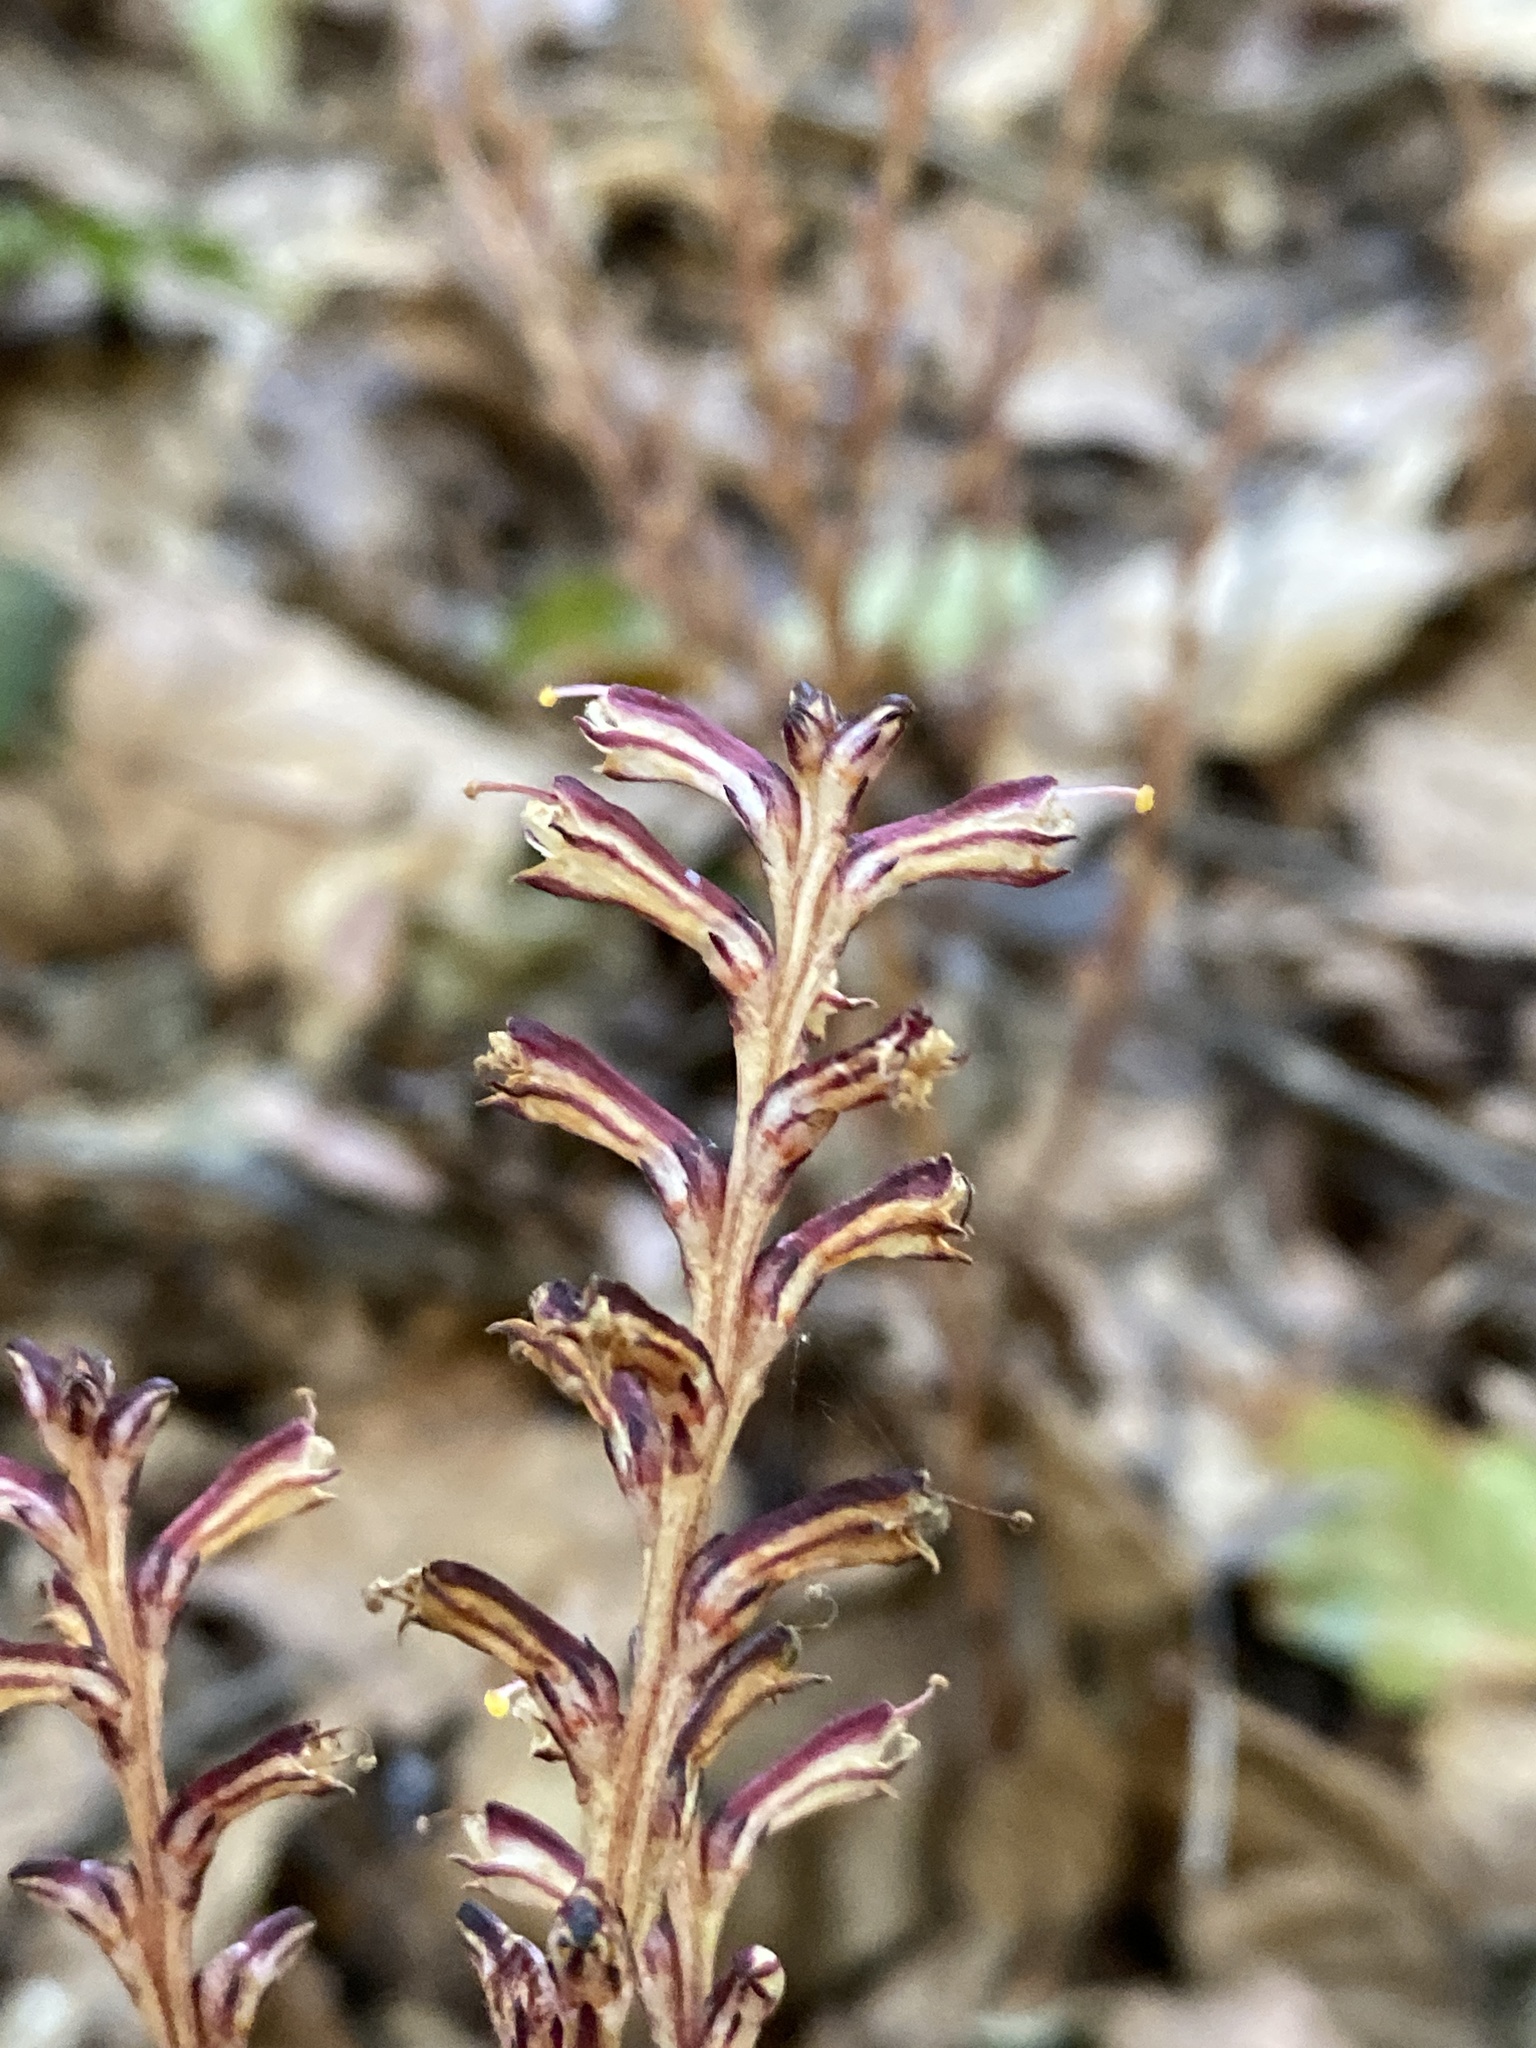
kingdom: Plantae
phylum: Tracheophyta
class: Magnoliopsida
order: Lamiales
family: Orobanchaceae
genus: Epifagus
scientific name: Epifagus virginiana
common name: Beechdrops
